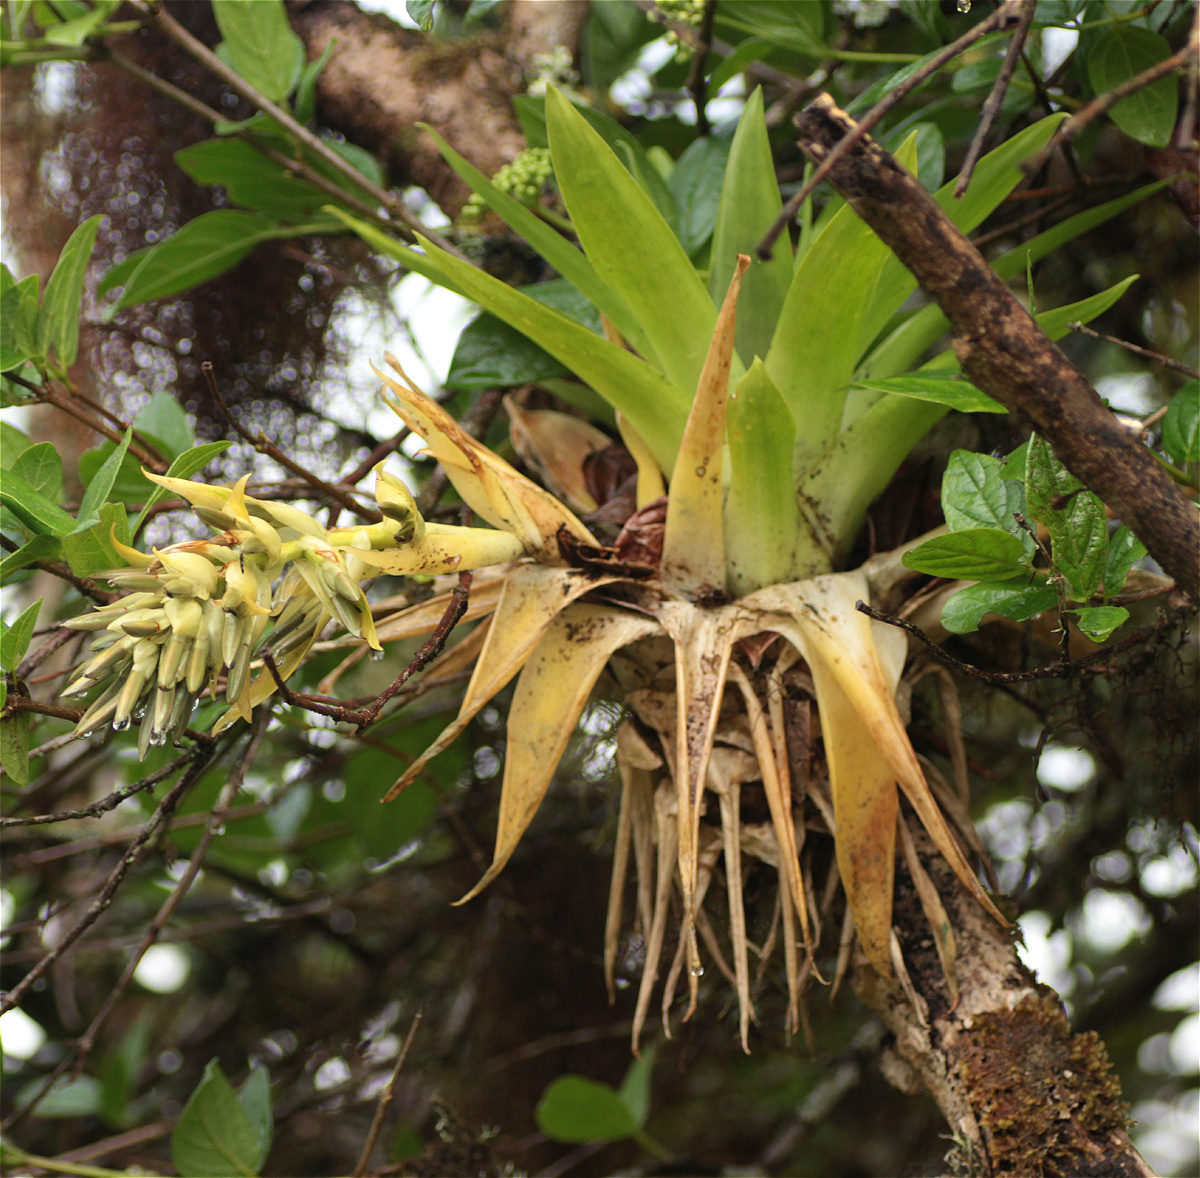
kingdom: Plantae
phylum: Tracheophyta
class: Liliopsida
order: Poales
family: Bromeliaceae
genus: Tillandsia
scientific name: Tillandsia biflora
